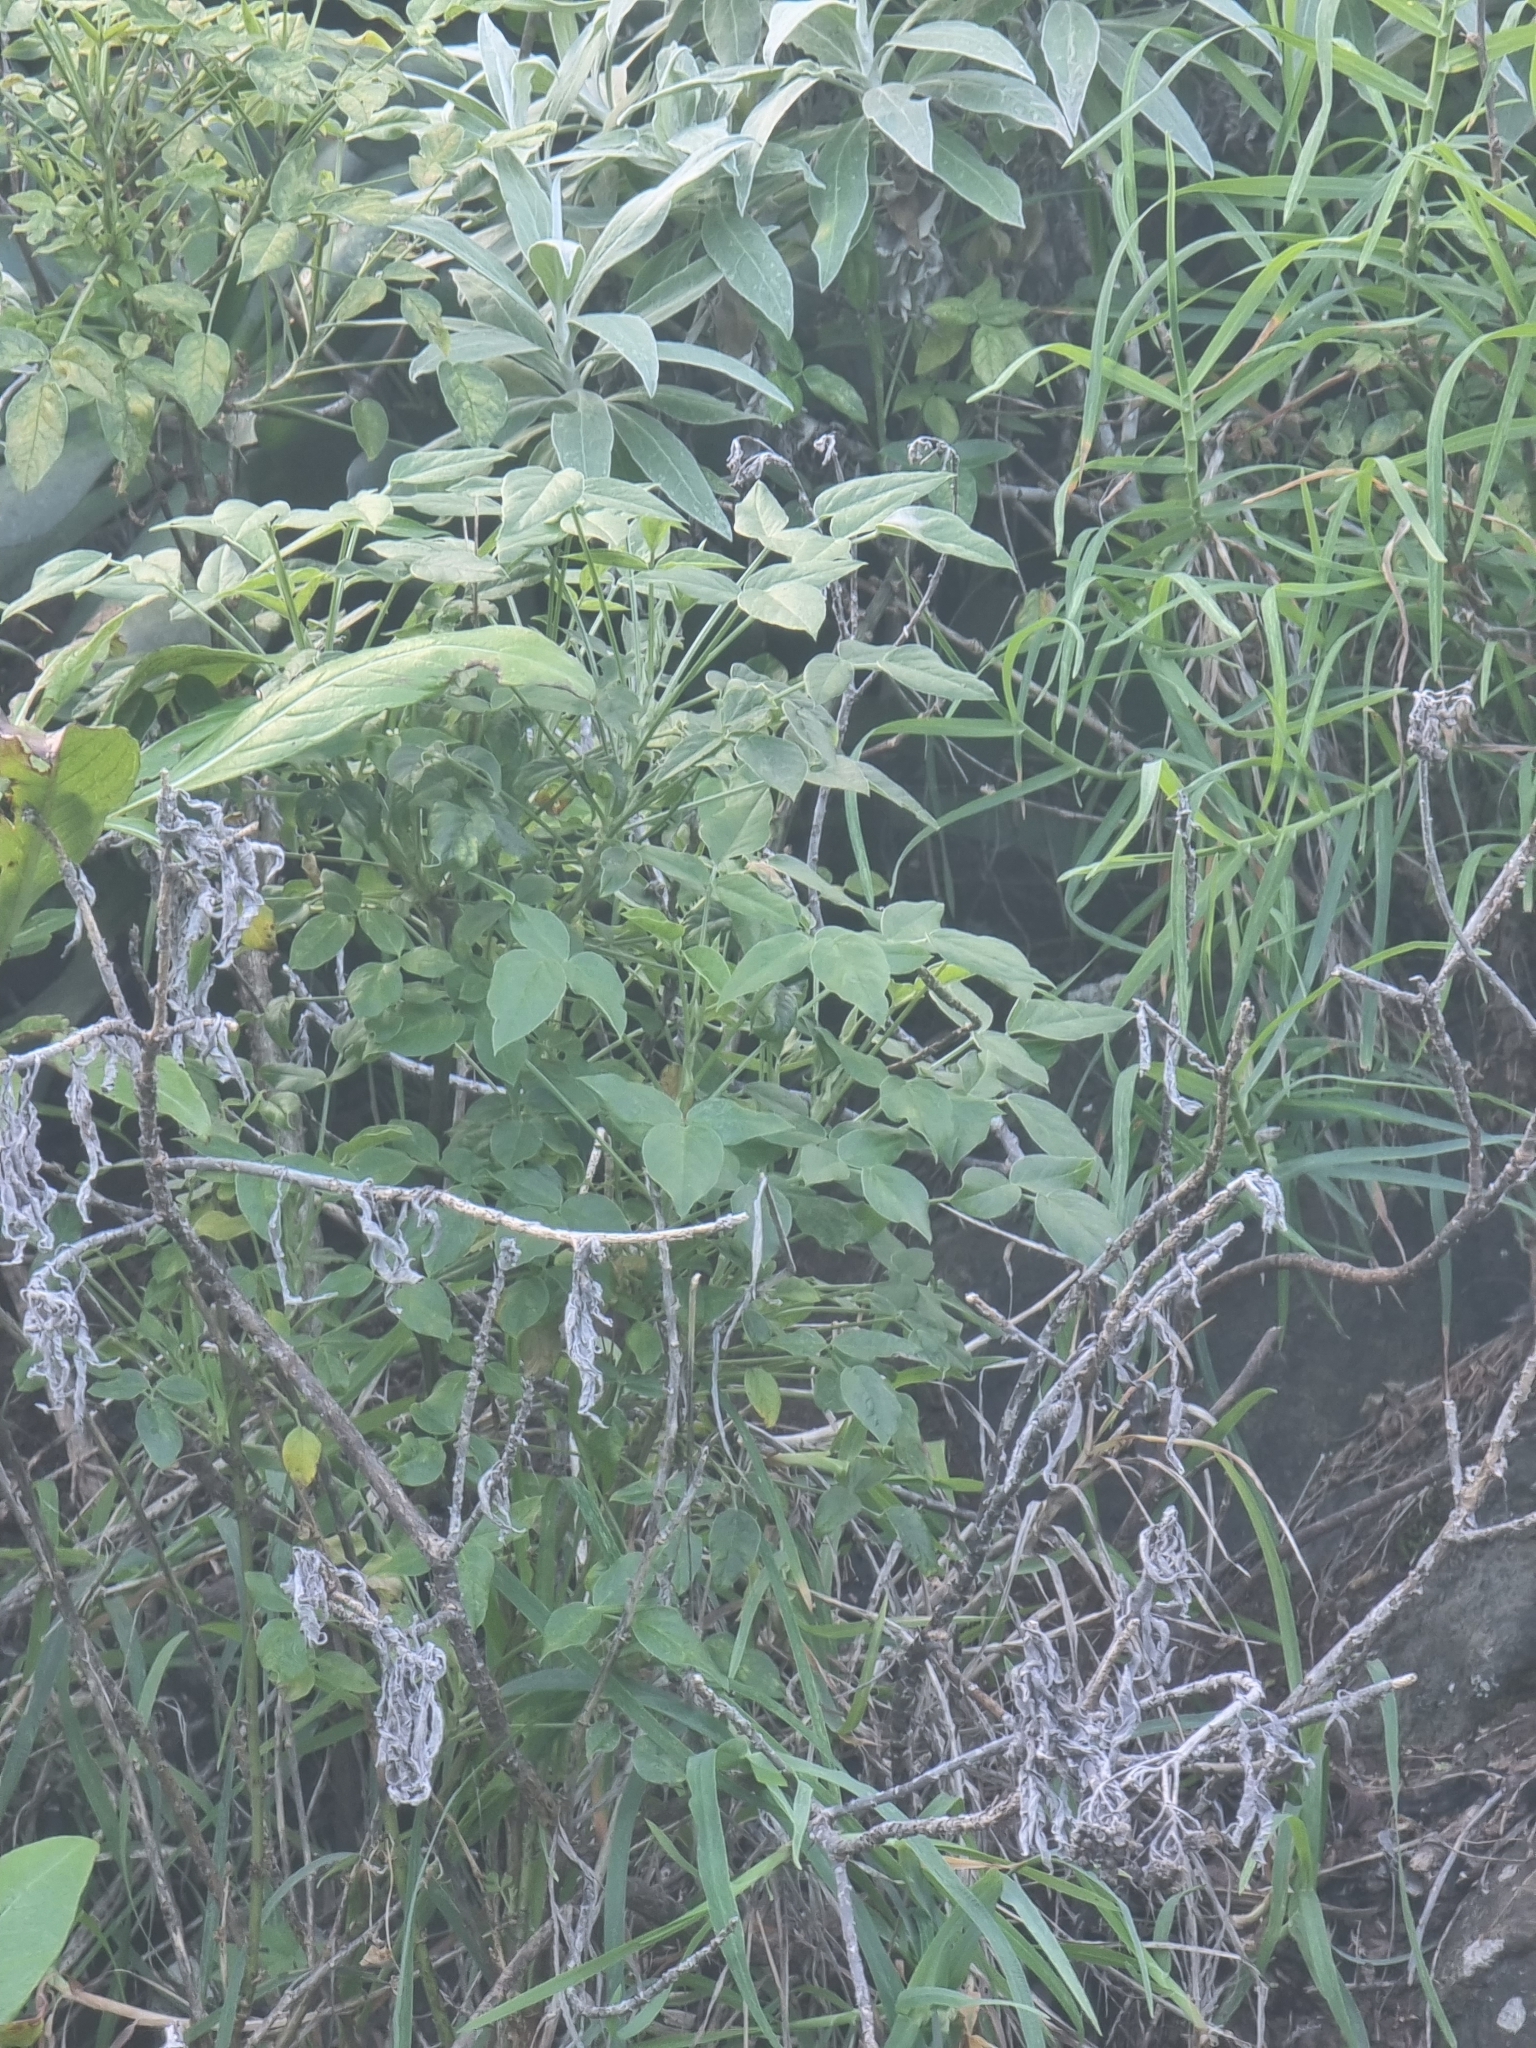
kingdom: Plantae
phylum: Tracheophyta
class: Magnoliopsida
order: Fabales
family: Fabaceae
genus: Bituminaria
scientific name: Bituminaria bituminosa
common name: Arabian pea
